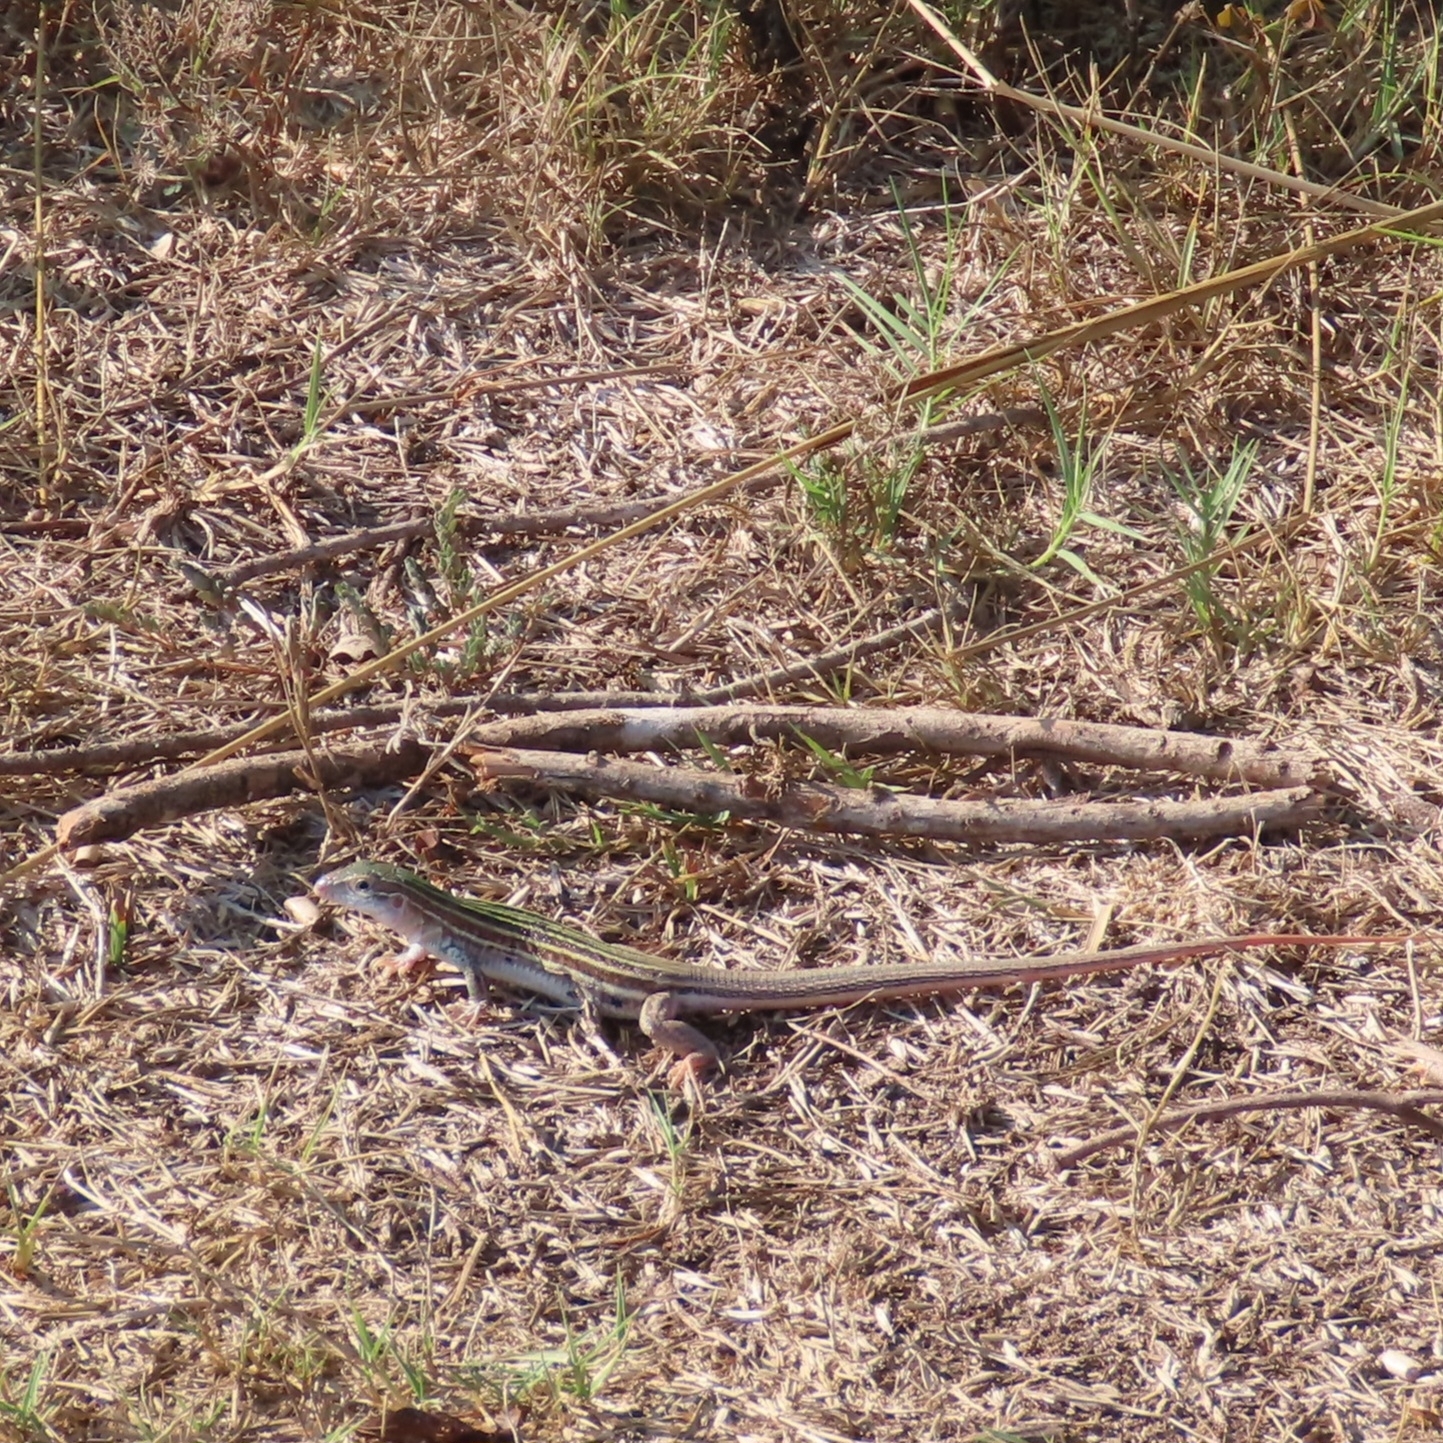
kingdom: Animalia
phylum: Chordata
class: Squamata
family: Teiidae
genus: Aspidoscelis
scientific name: Aspidoscelis gularis
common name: Eastern spotted whiptail
